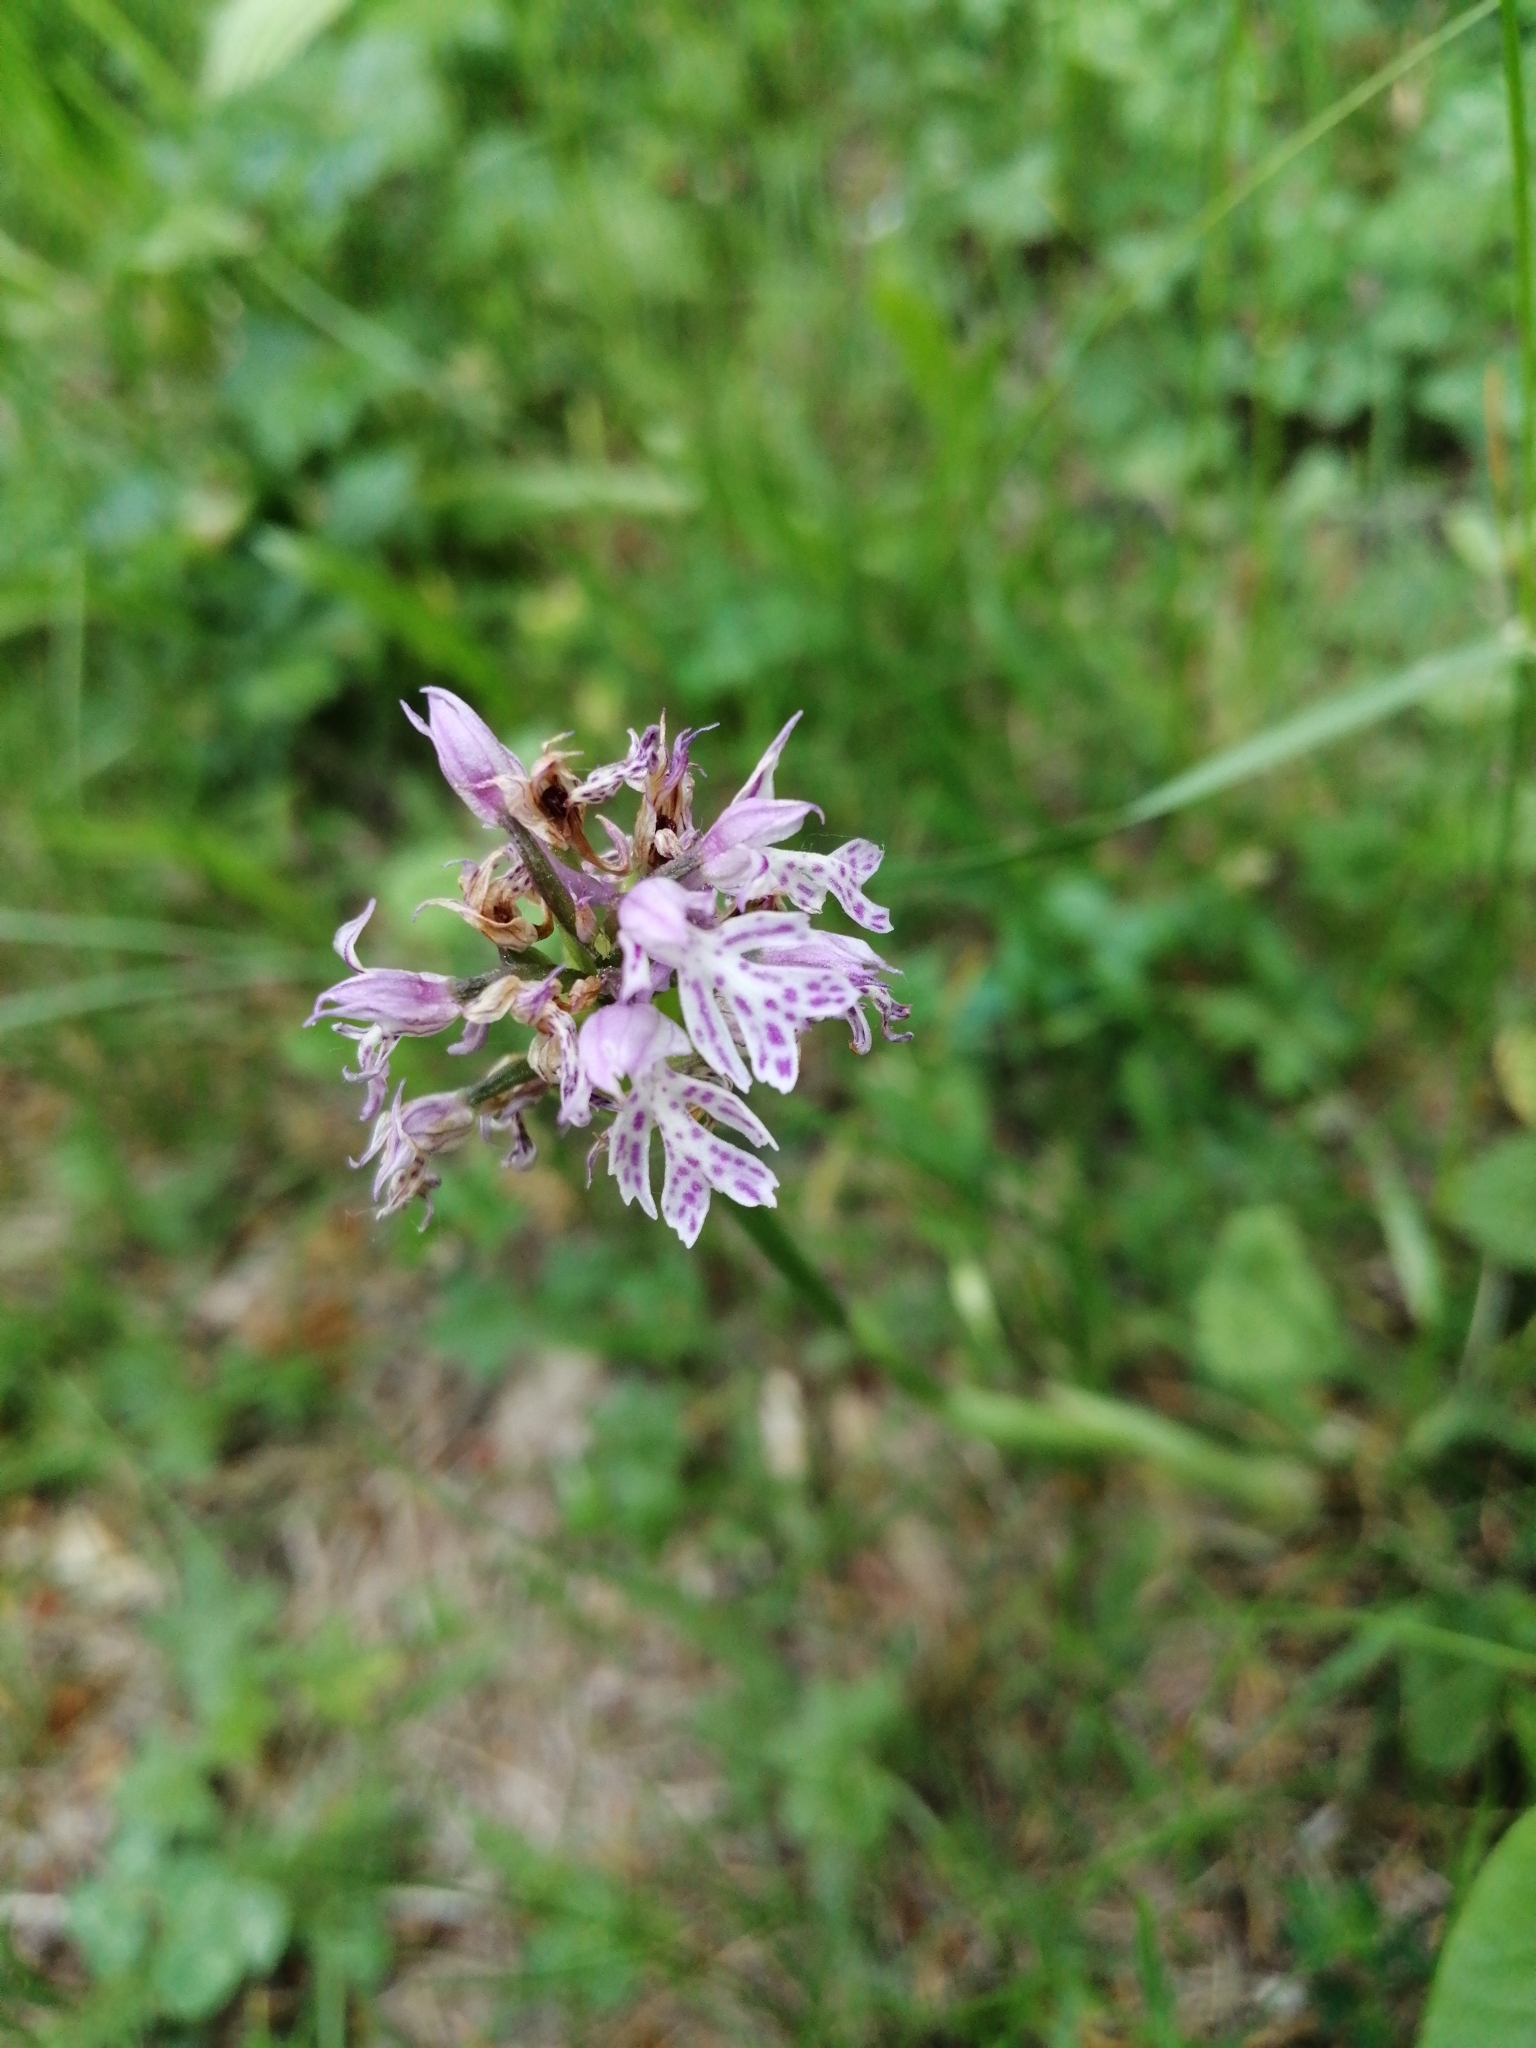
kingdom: Plantae
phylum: Tracheophyta
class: Liliopsida
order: Asparagales
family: Orchidaceae
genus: Neotinea
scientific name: Neotinea tridentata
